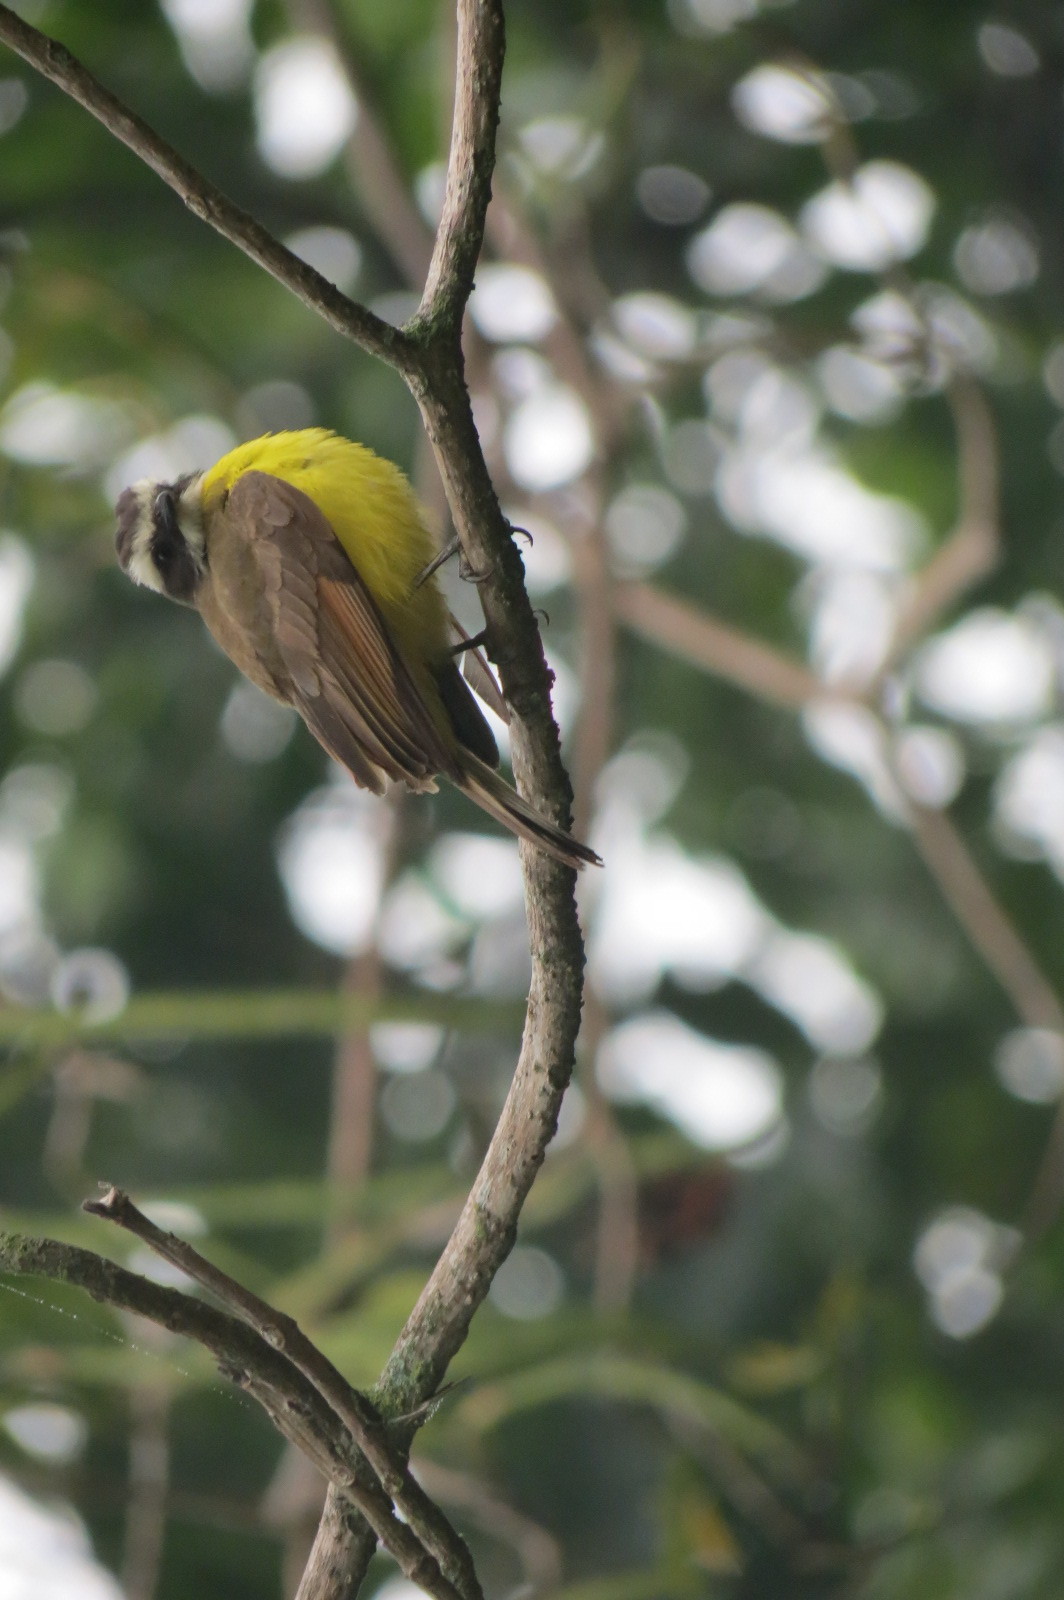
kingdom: Animalia
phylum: Chordata
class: Aves
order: Passeriformes
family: Tyrannidae
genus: Myiozetetes
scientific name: Myiozetetes cayanensis
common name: Rusty-margined flycatcher
